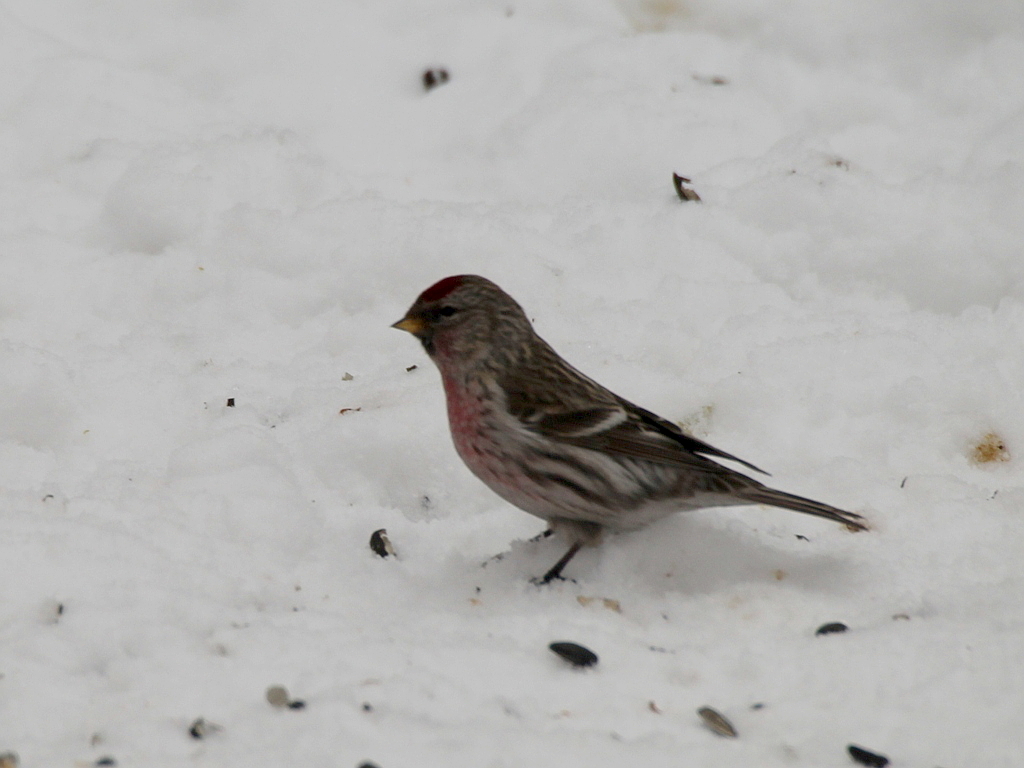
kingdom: Animalia
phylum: Chordata
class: Aves
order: Passeriformes
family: Fringillidae
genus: Acanthis
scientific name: Acanthis flammea
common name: Common redpoll
